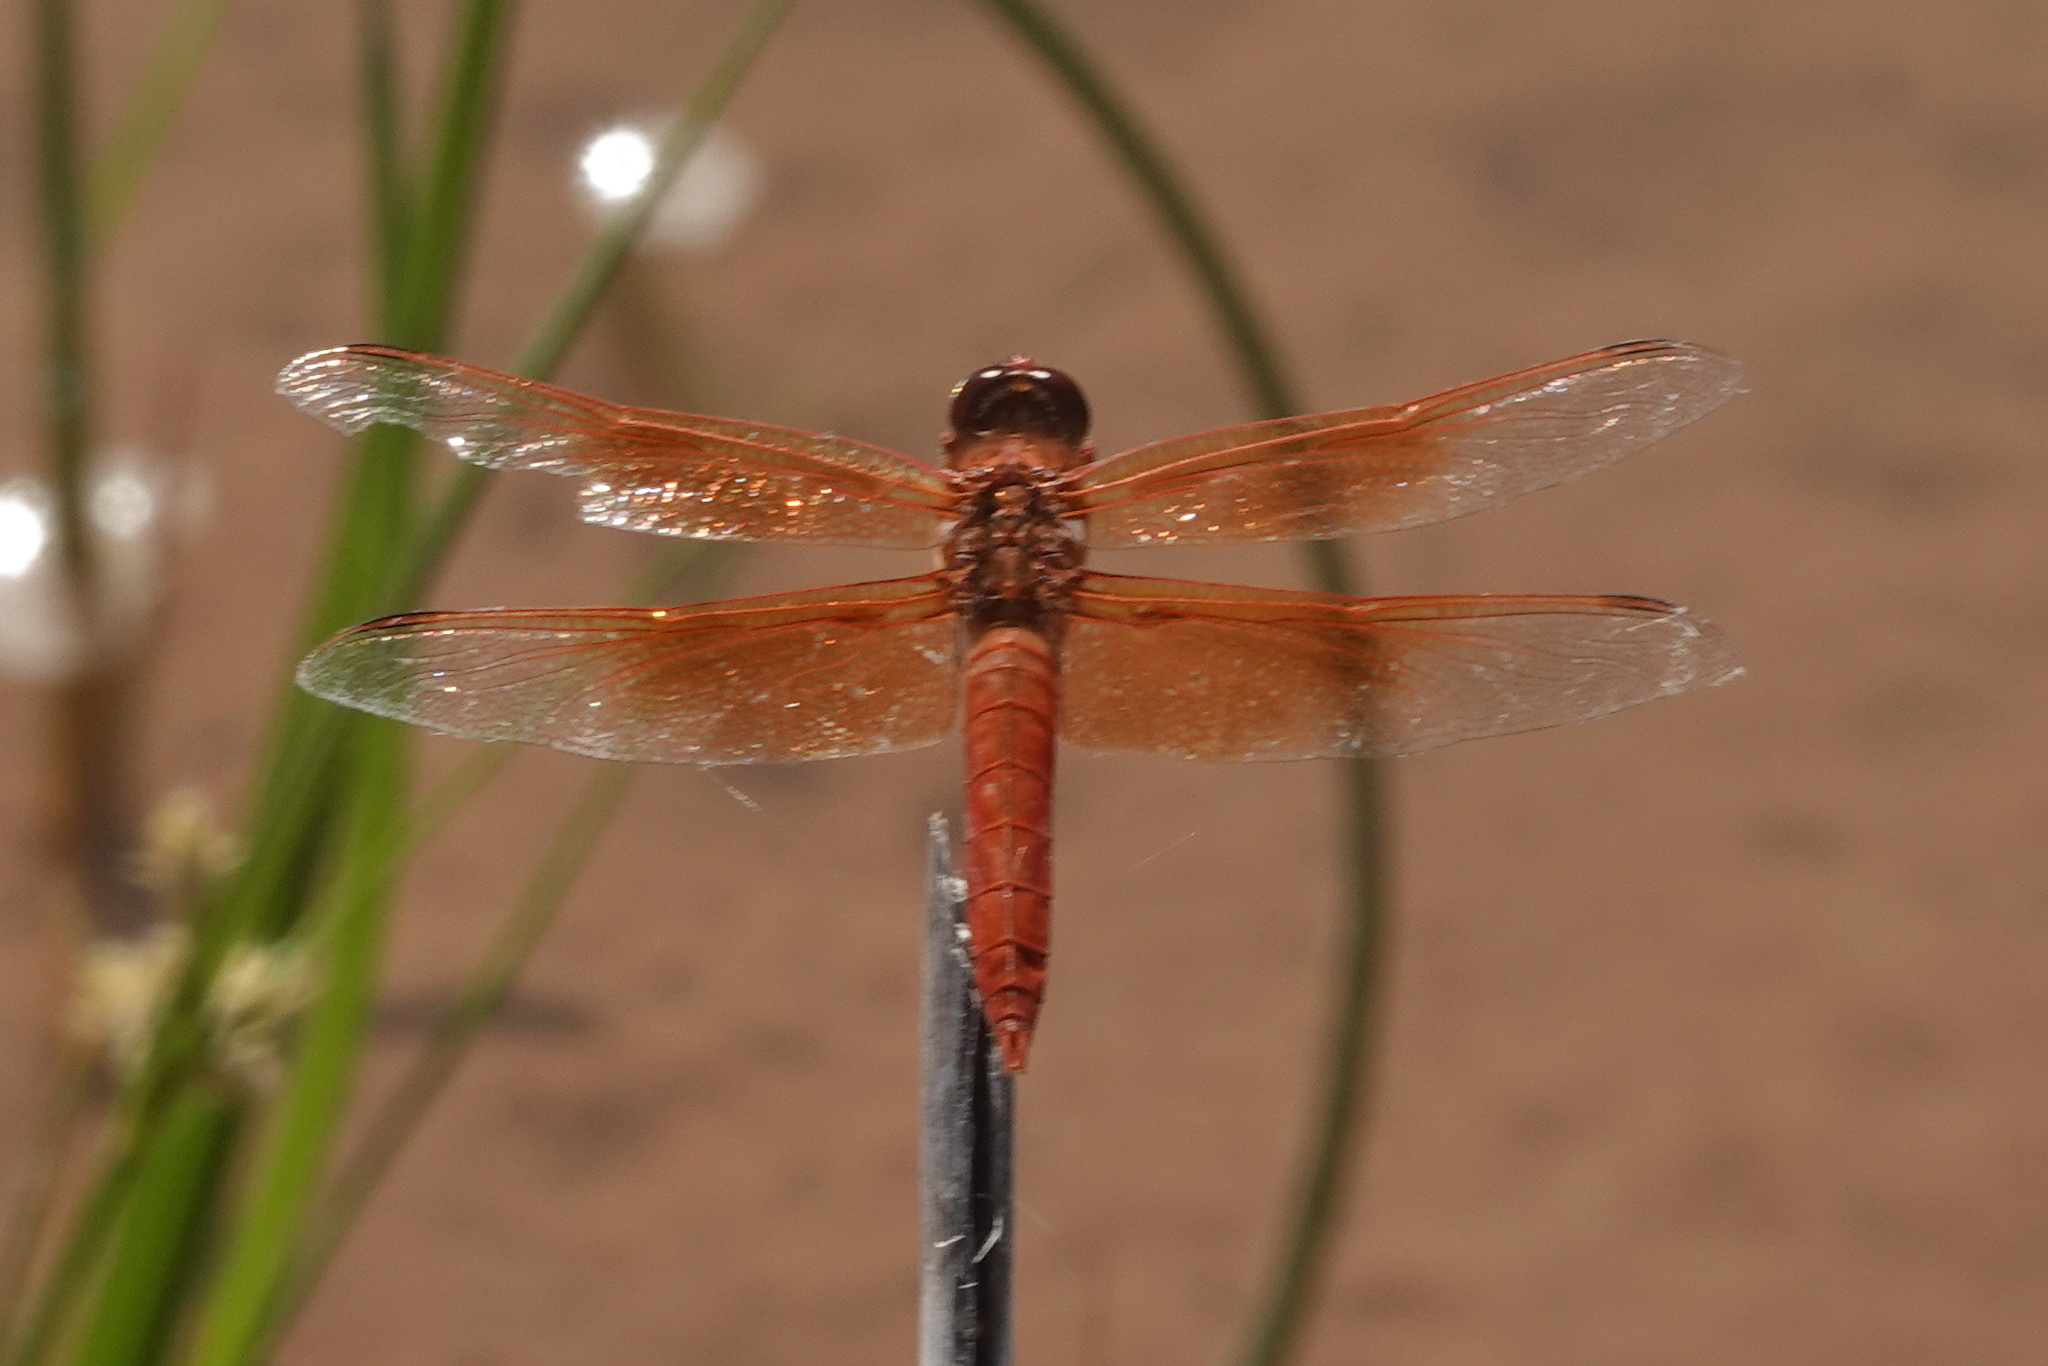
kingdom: Animalia
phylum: Arthropoda
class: Insecta
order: Odonata
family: Libellulidae
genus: Libellula
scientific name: Libellula saturata
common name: Flame skimmer
